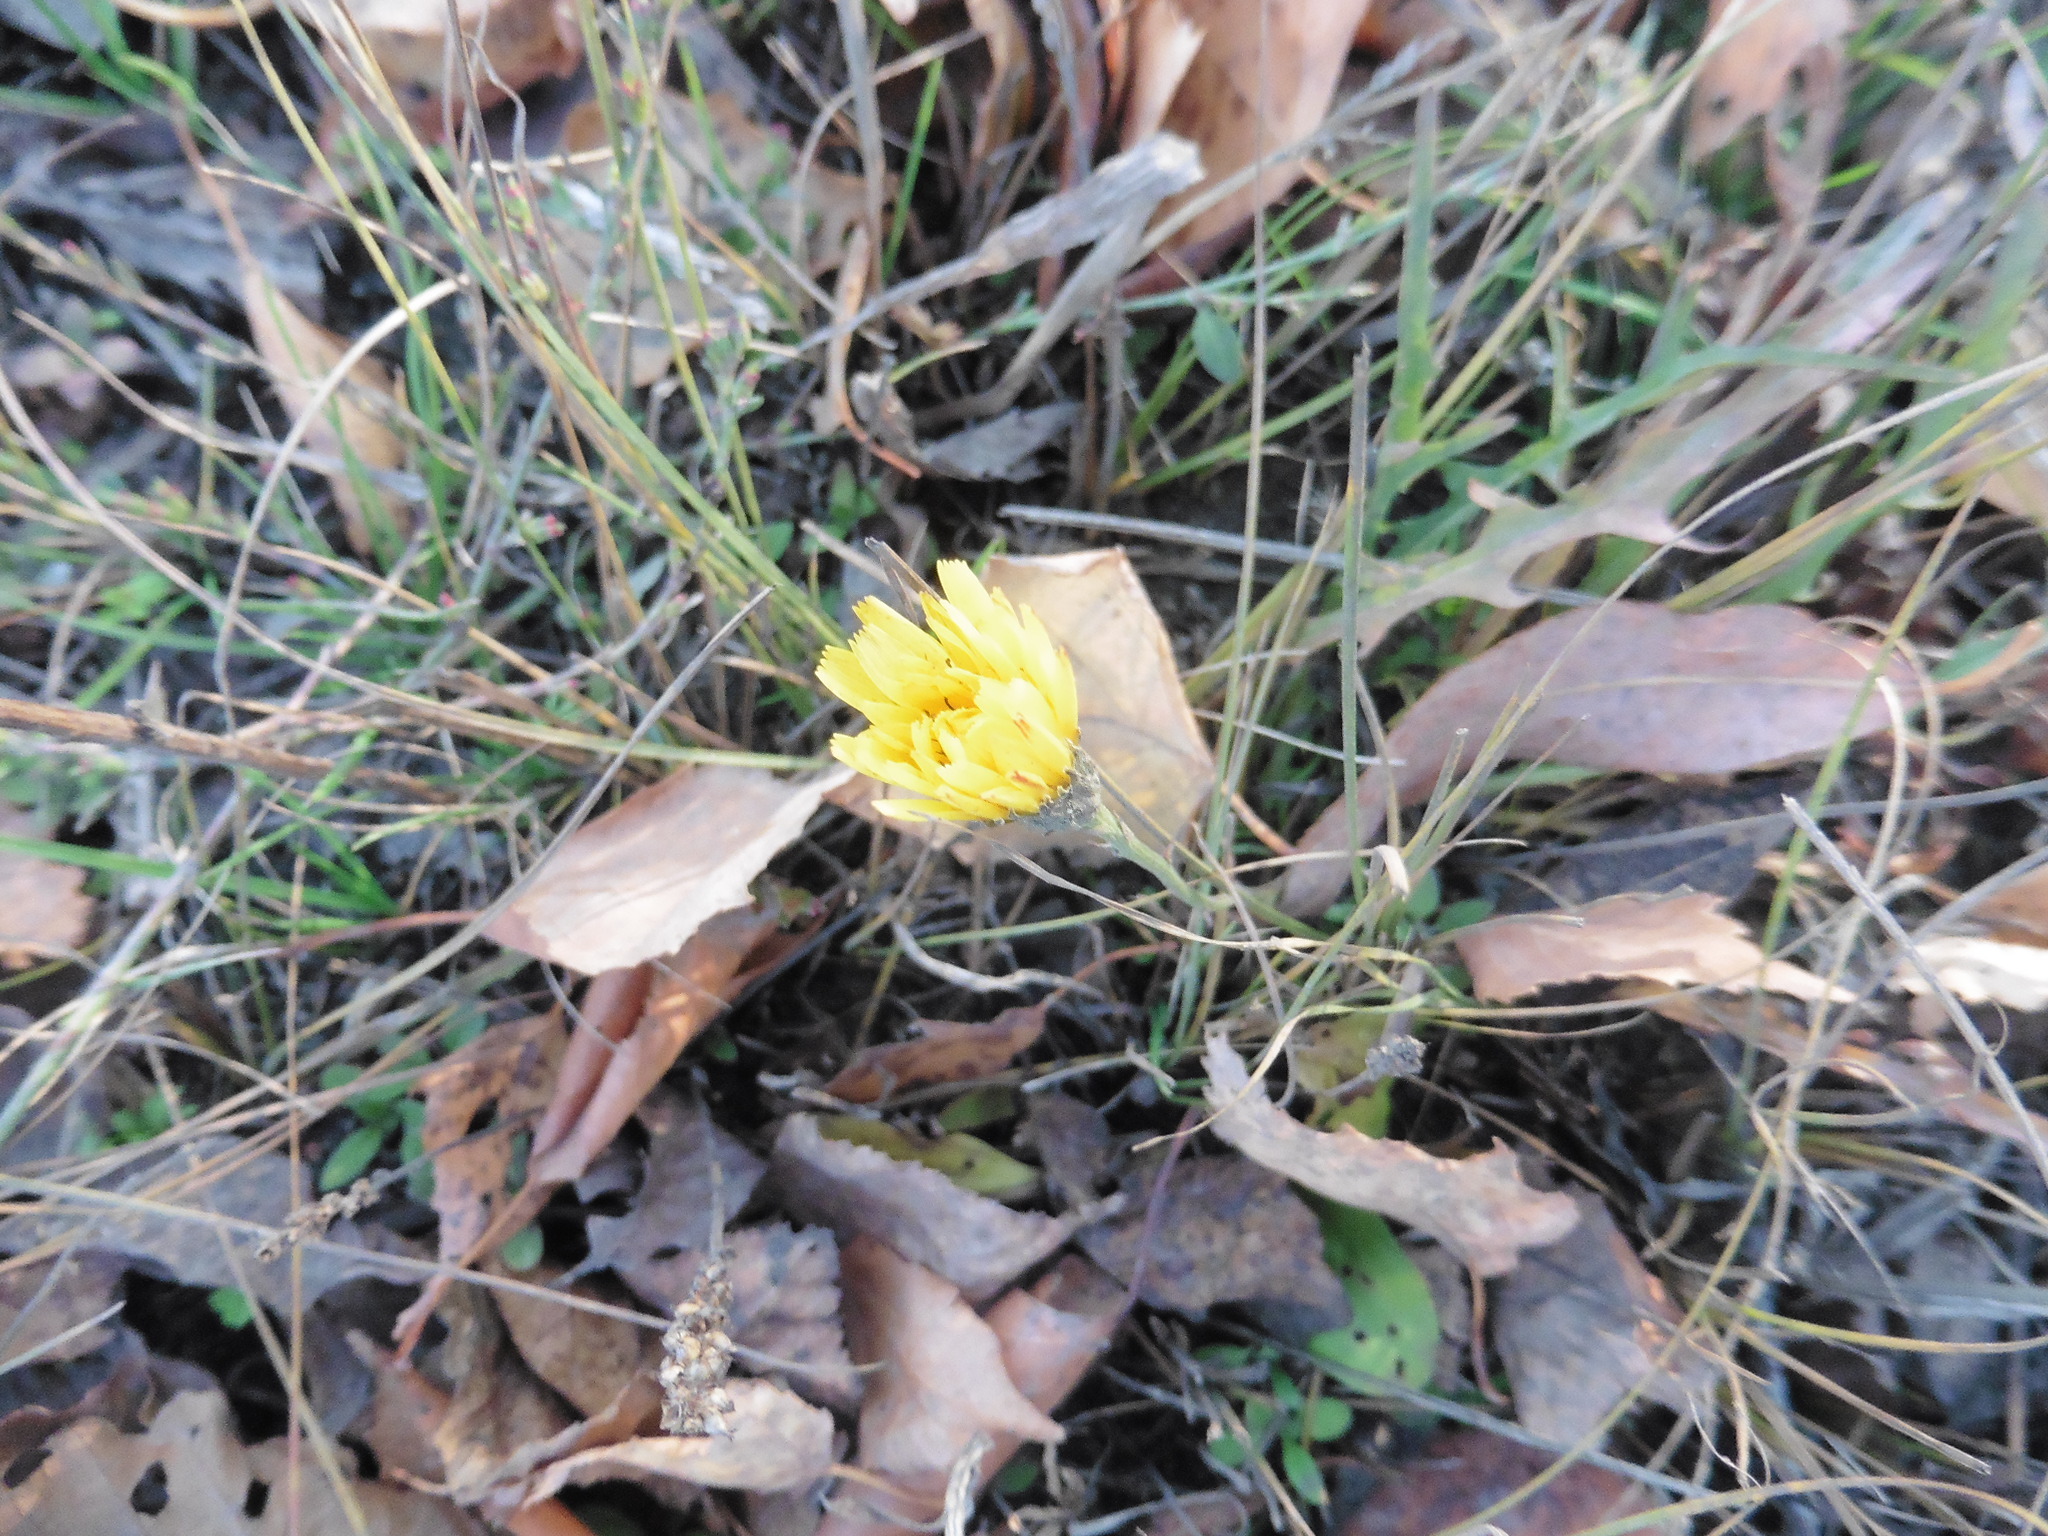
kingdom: Plantae
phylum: Tracheophyta
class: Magnoliopsida
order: Asterales
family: Asteraceae
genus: Scorzoneroides
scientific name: Scorzoneroides autumnalis
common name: Autumn hawkbit
